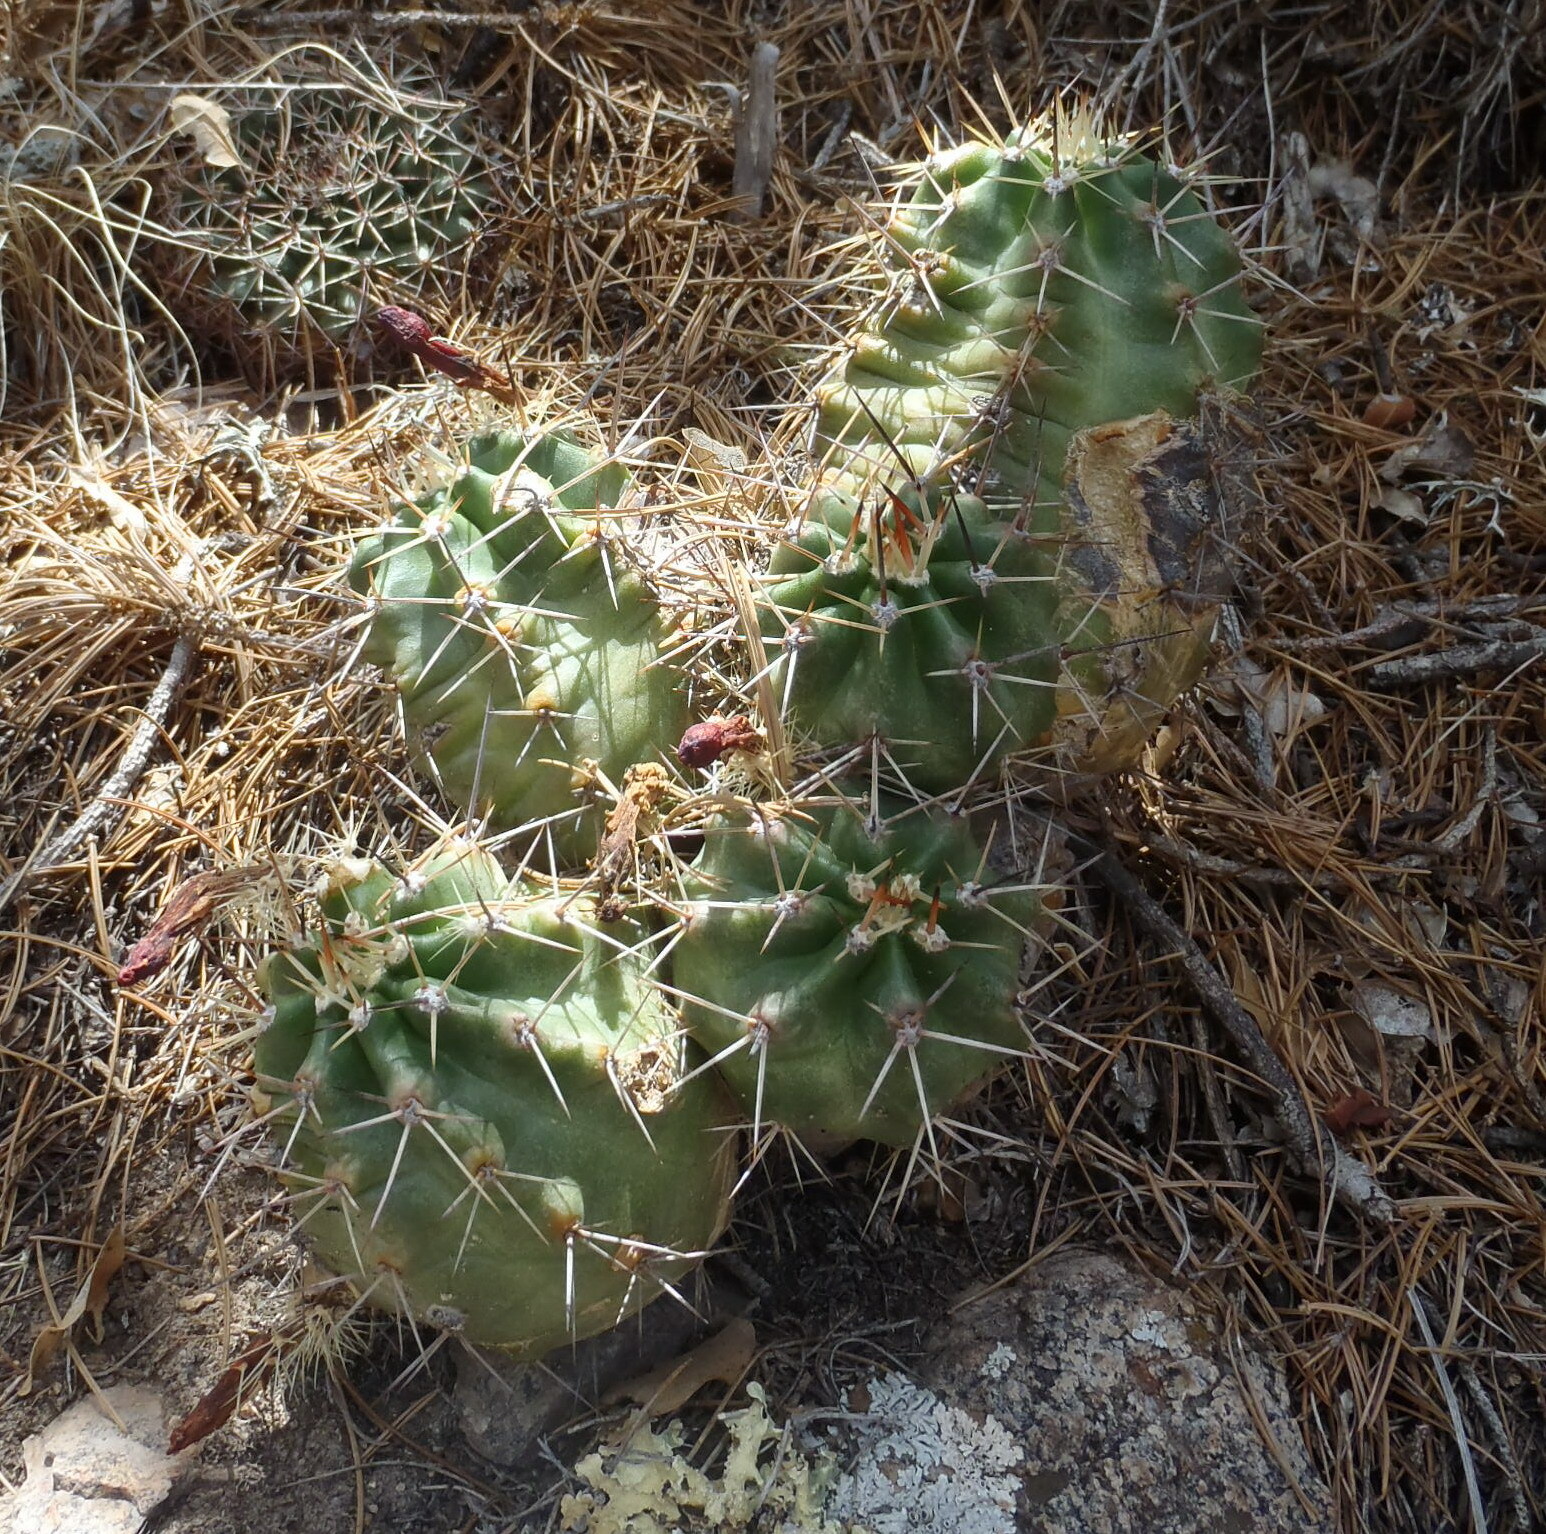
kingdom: Plantae
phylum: Tracheophyta
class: Magnoliopsida
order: Caryophyllales
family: Cactaceae
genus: Echinocereus
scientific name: Echinocereus coccineus
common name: Scarlet hedgehog cactus
